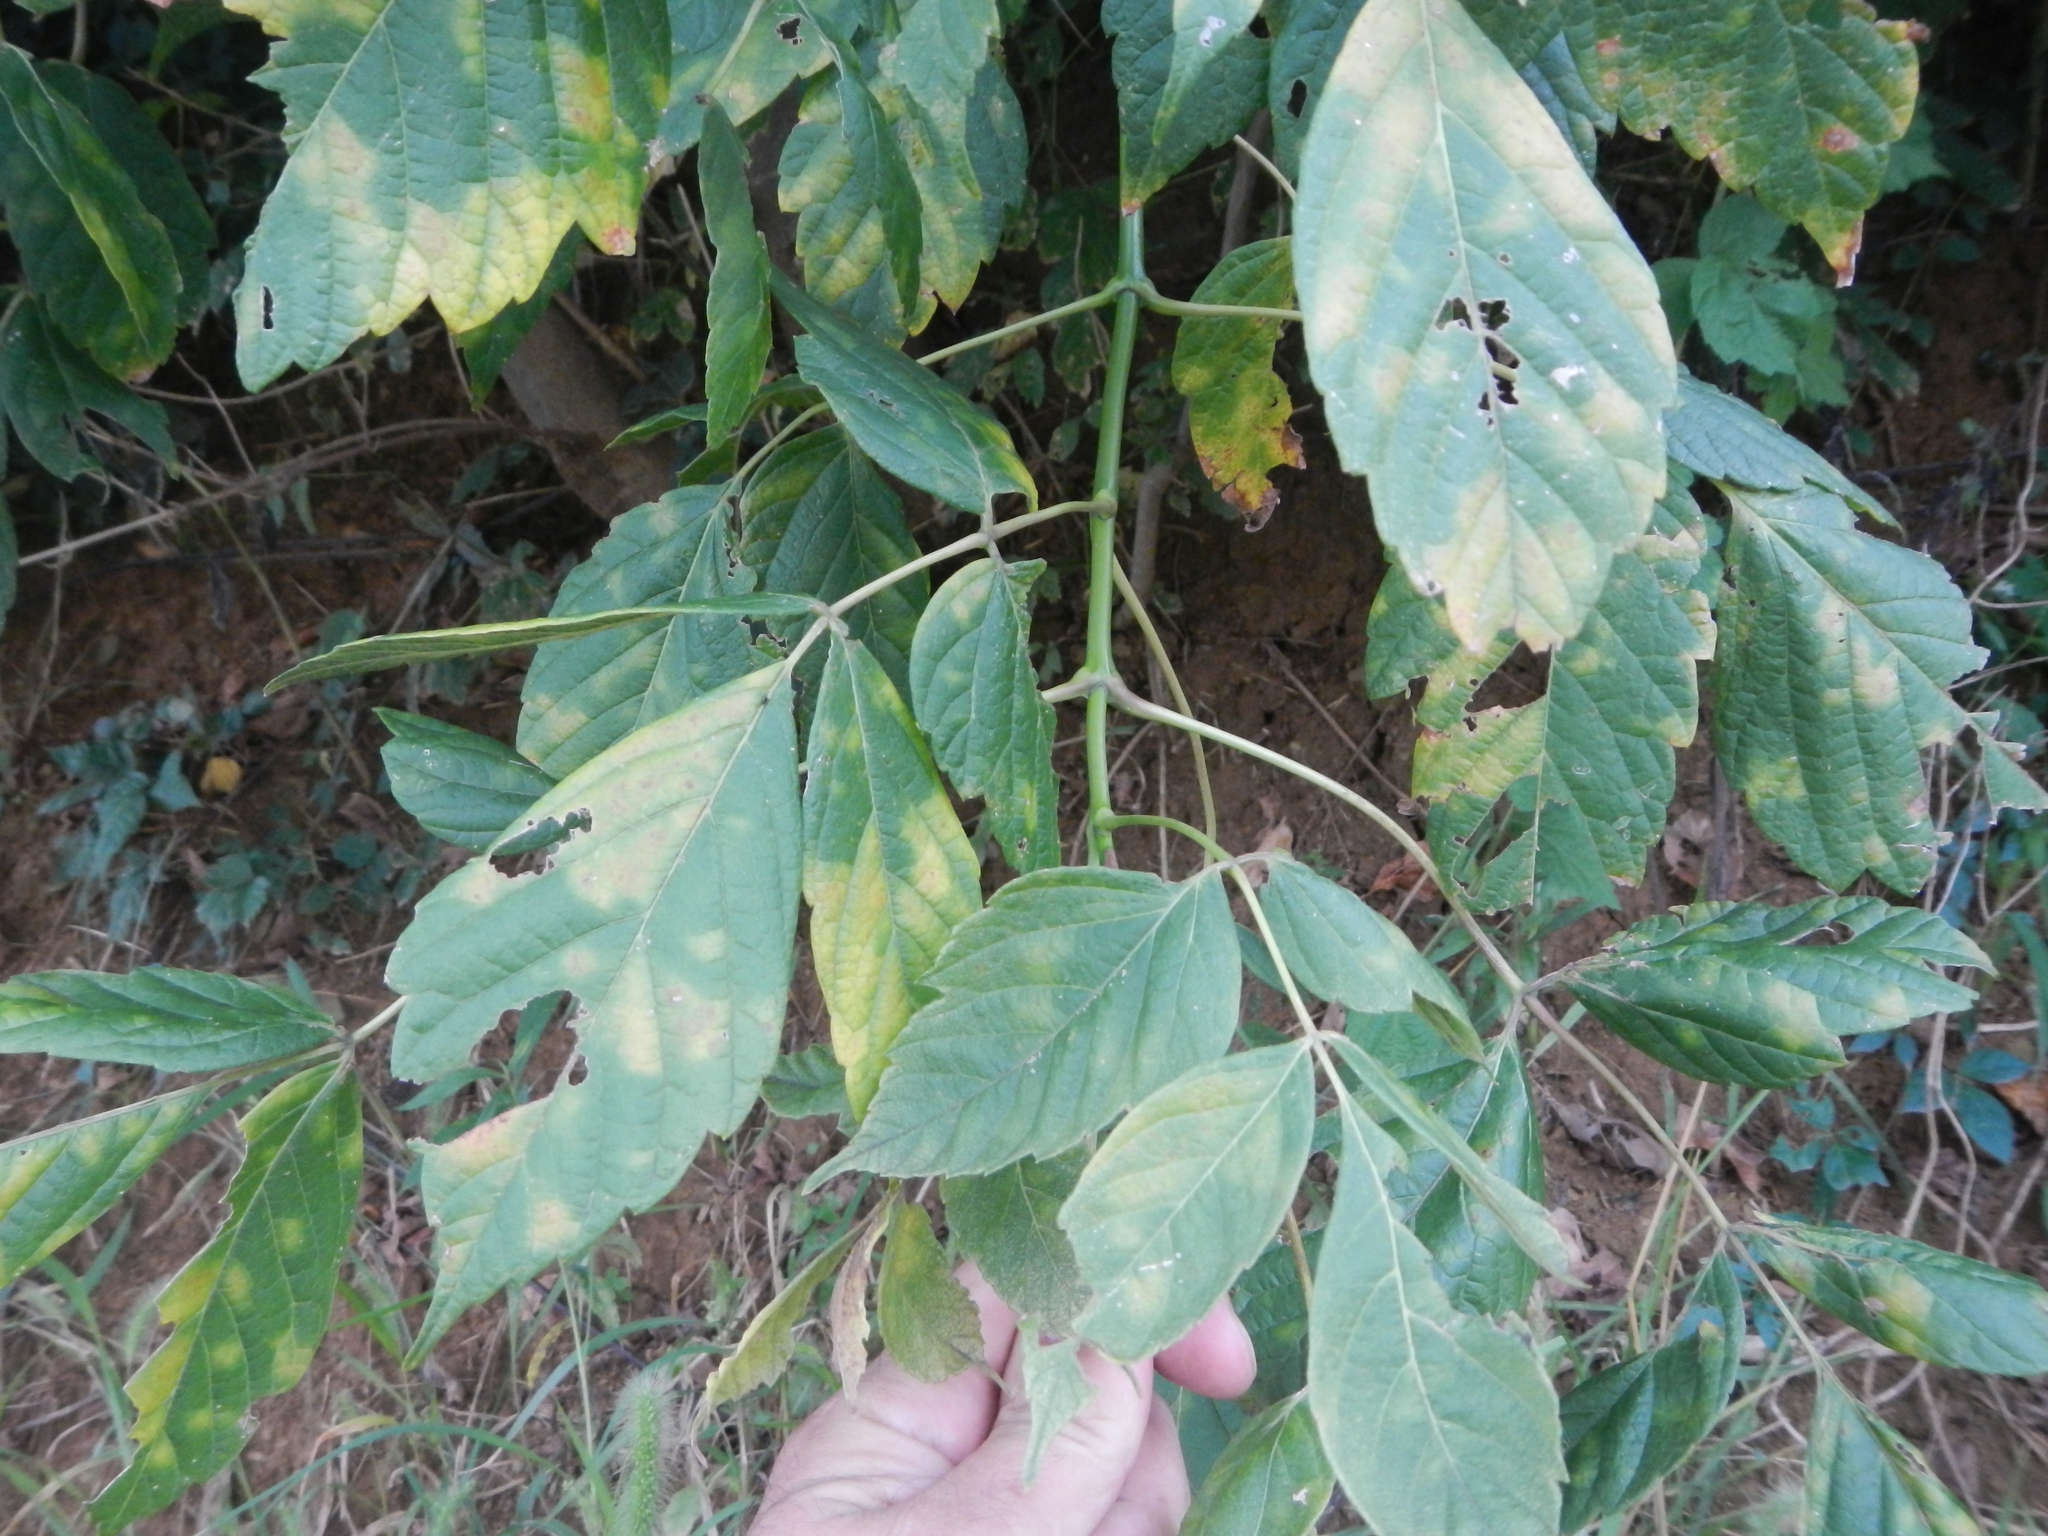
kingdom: Plantae
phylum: Tracheophyta
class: Magnoliopsida
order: Sapindales
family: Sapindaceae
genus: Acer
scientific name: Acer negundo
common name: Ashleaf maple
